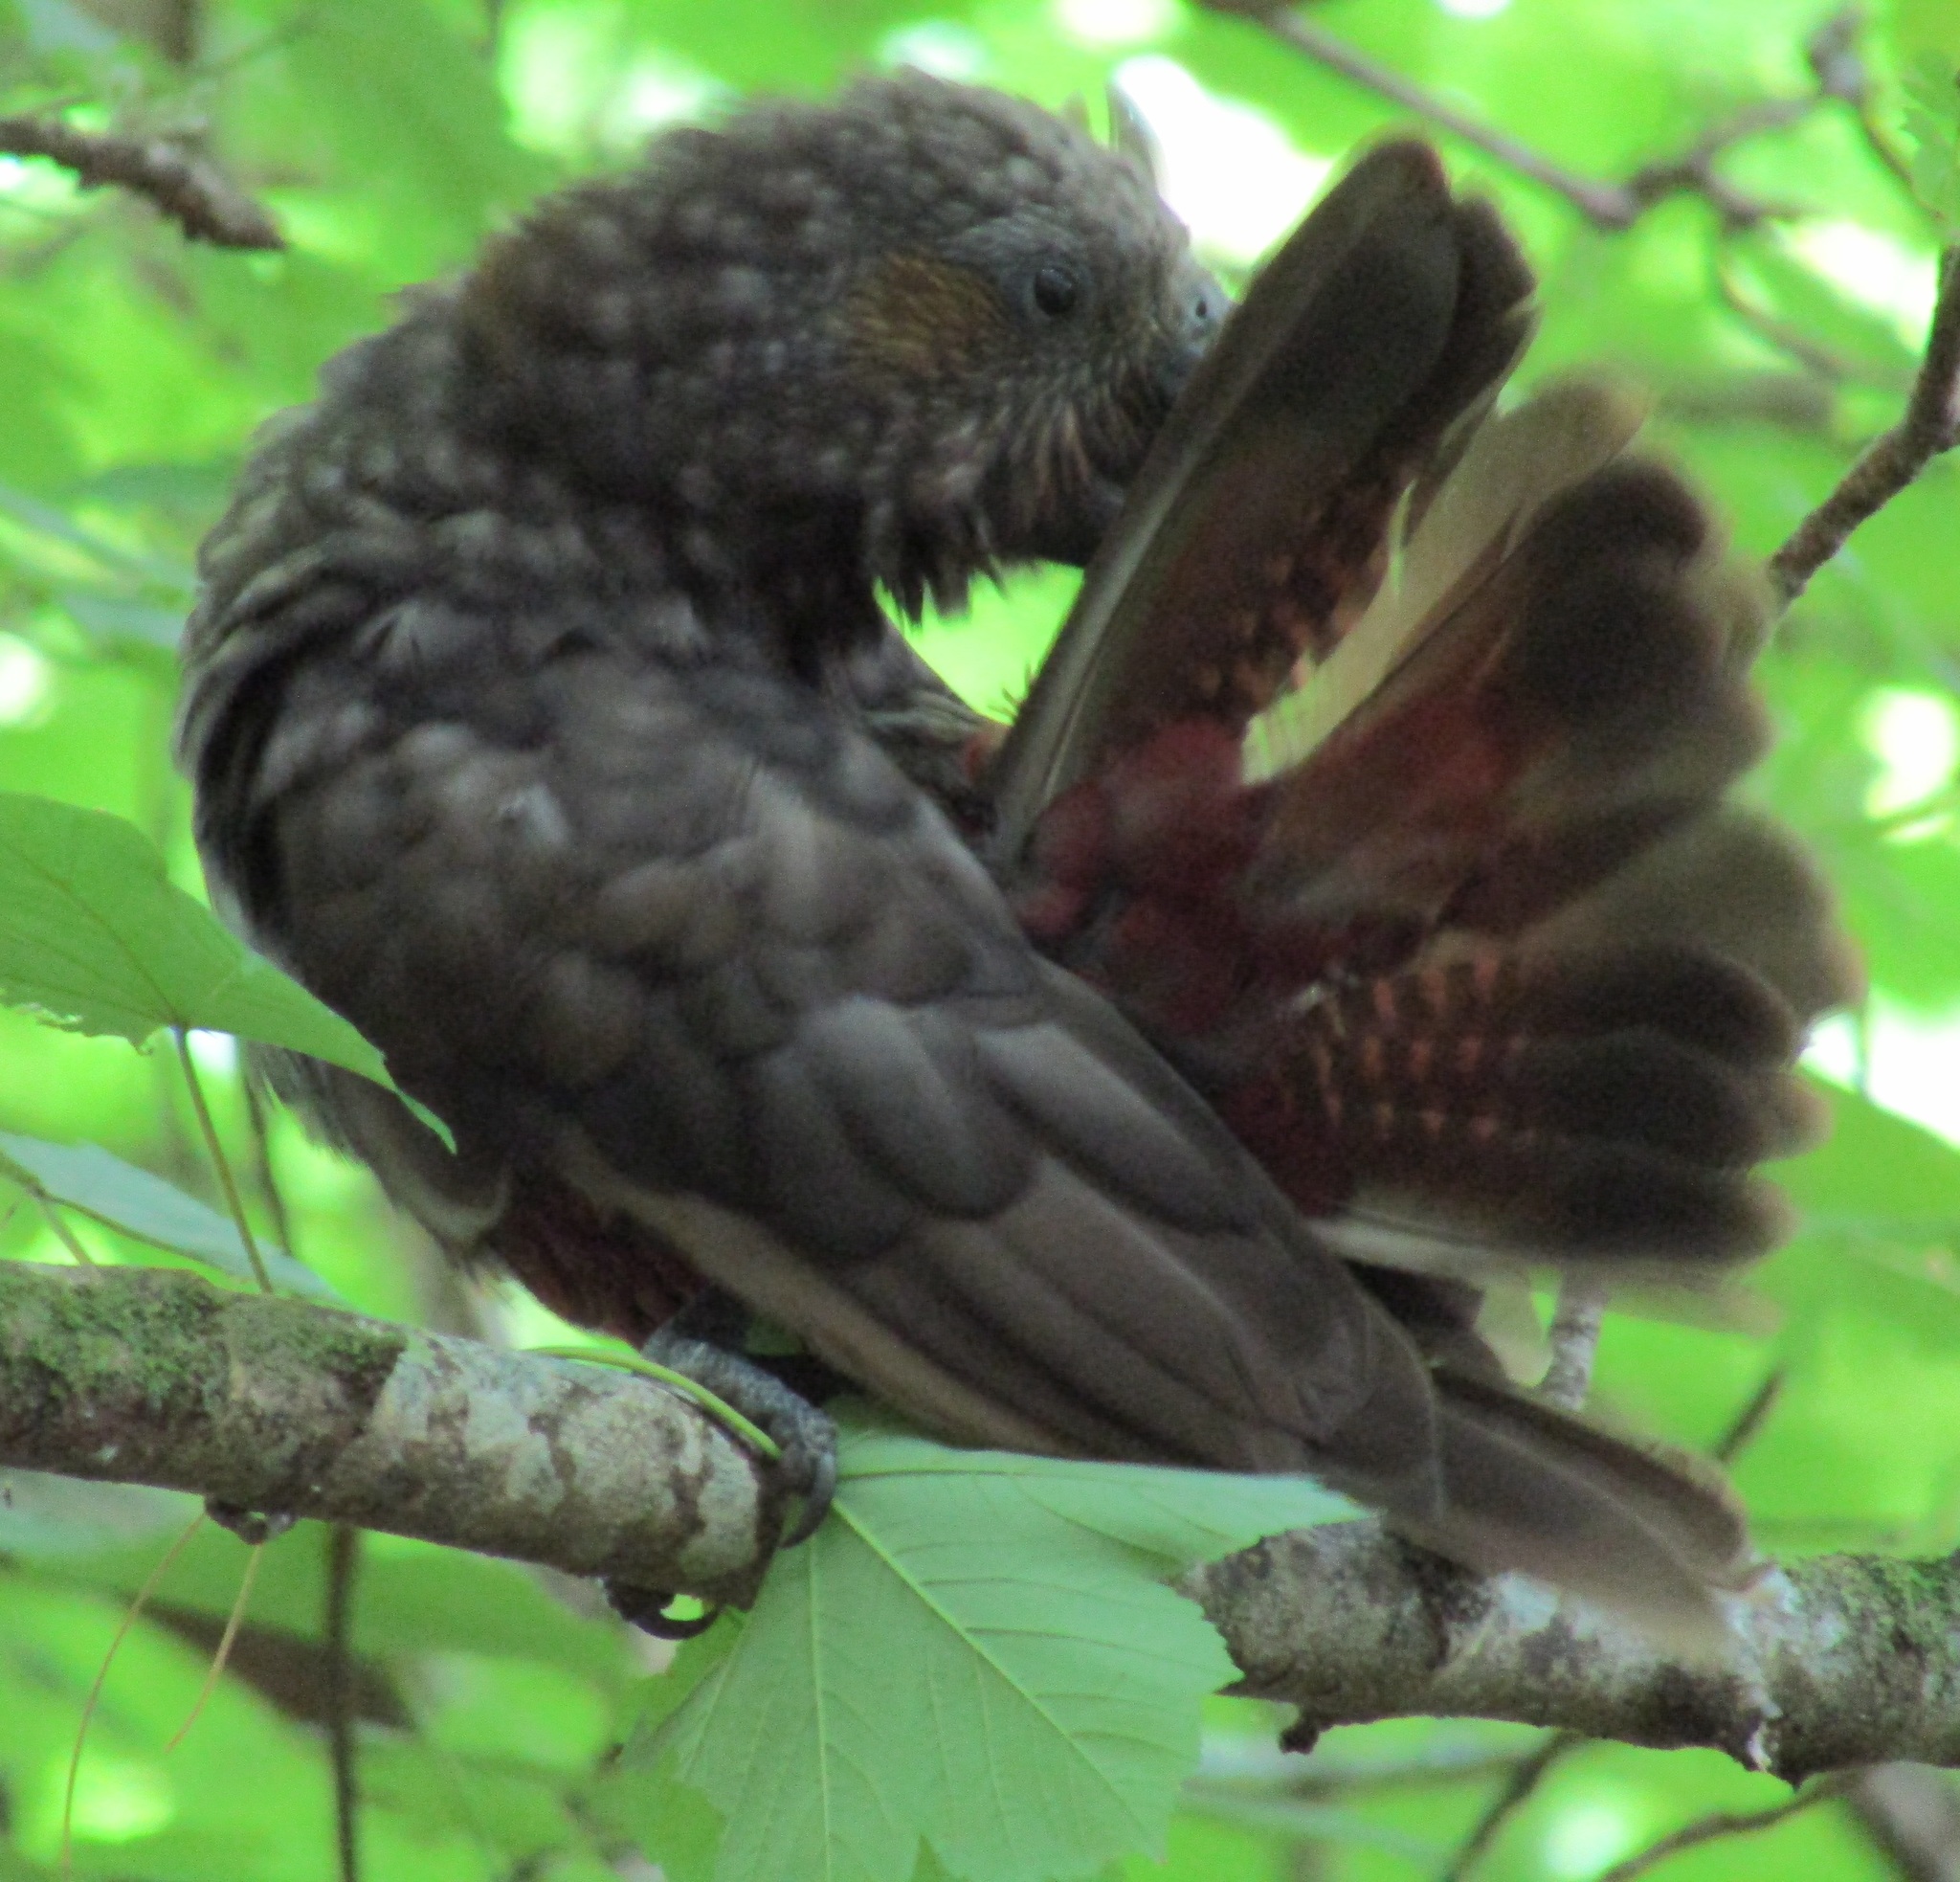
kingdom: Animalia
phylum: Chordata
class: Aves
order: Psittaciformes
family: Psittacidae
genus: Nestor
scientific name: Nestor meridionalis
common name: New zealand kaka
